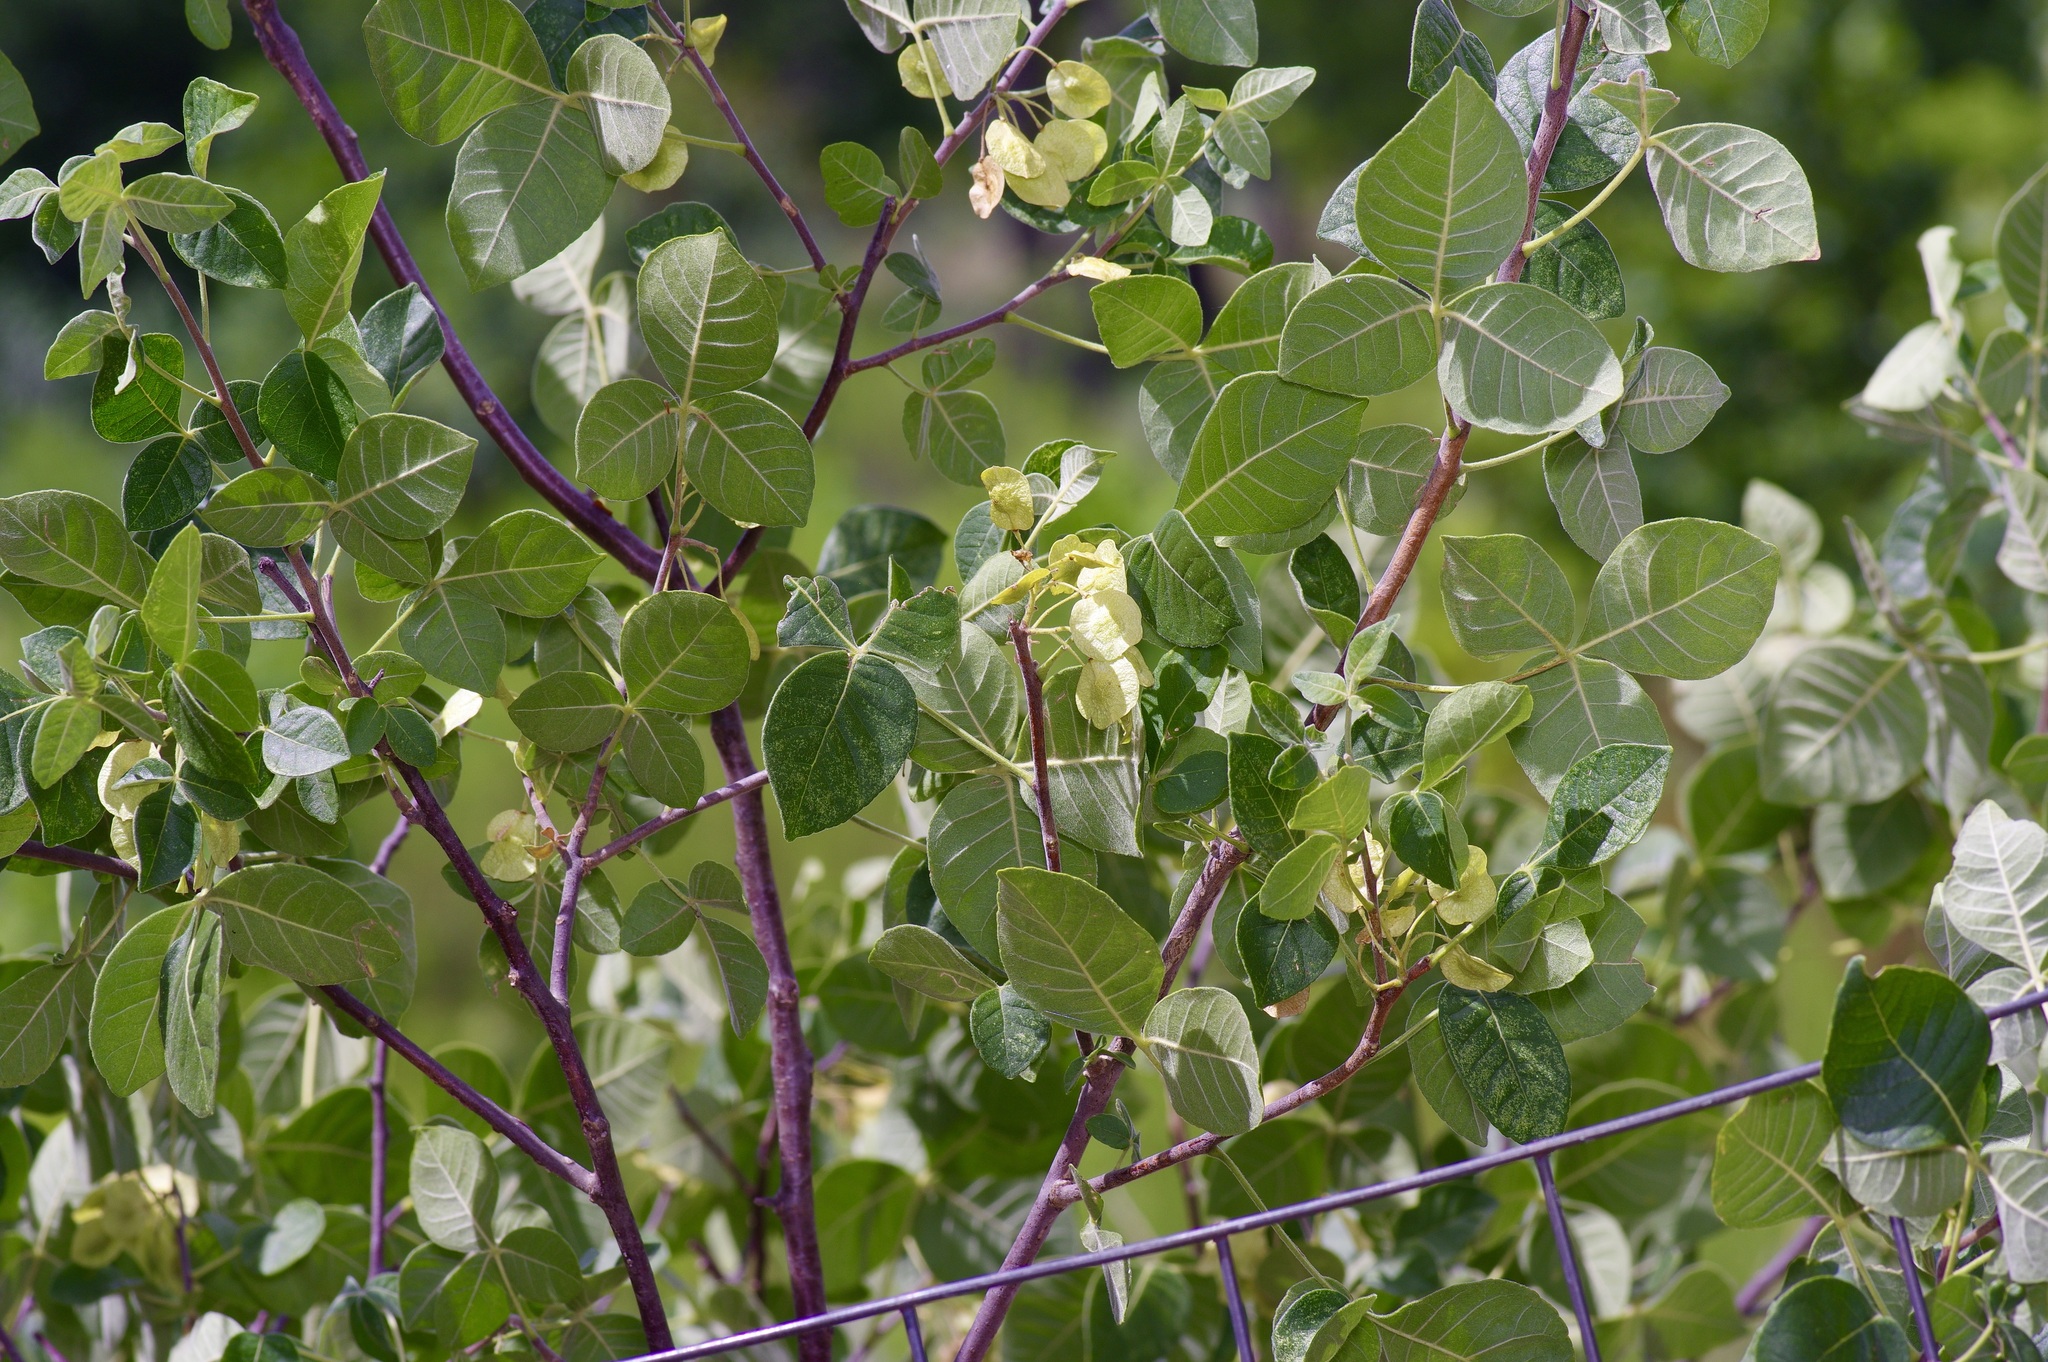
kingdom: Plantae
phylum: Tracheophyta
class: Magnoliopsida
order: Sapindales
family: Rutaceae
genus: Ptelea
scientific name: Ptelea trifoliata
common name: Common hop-tree
